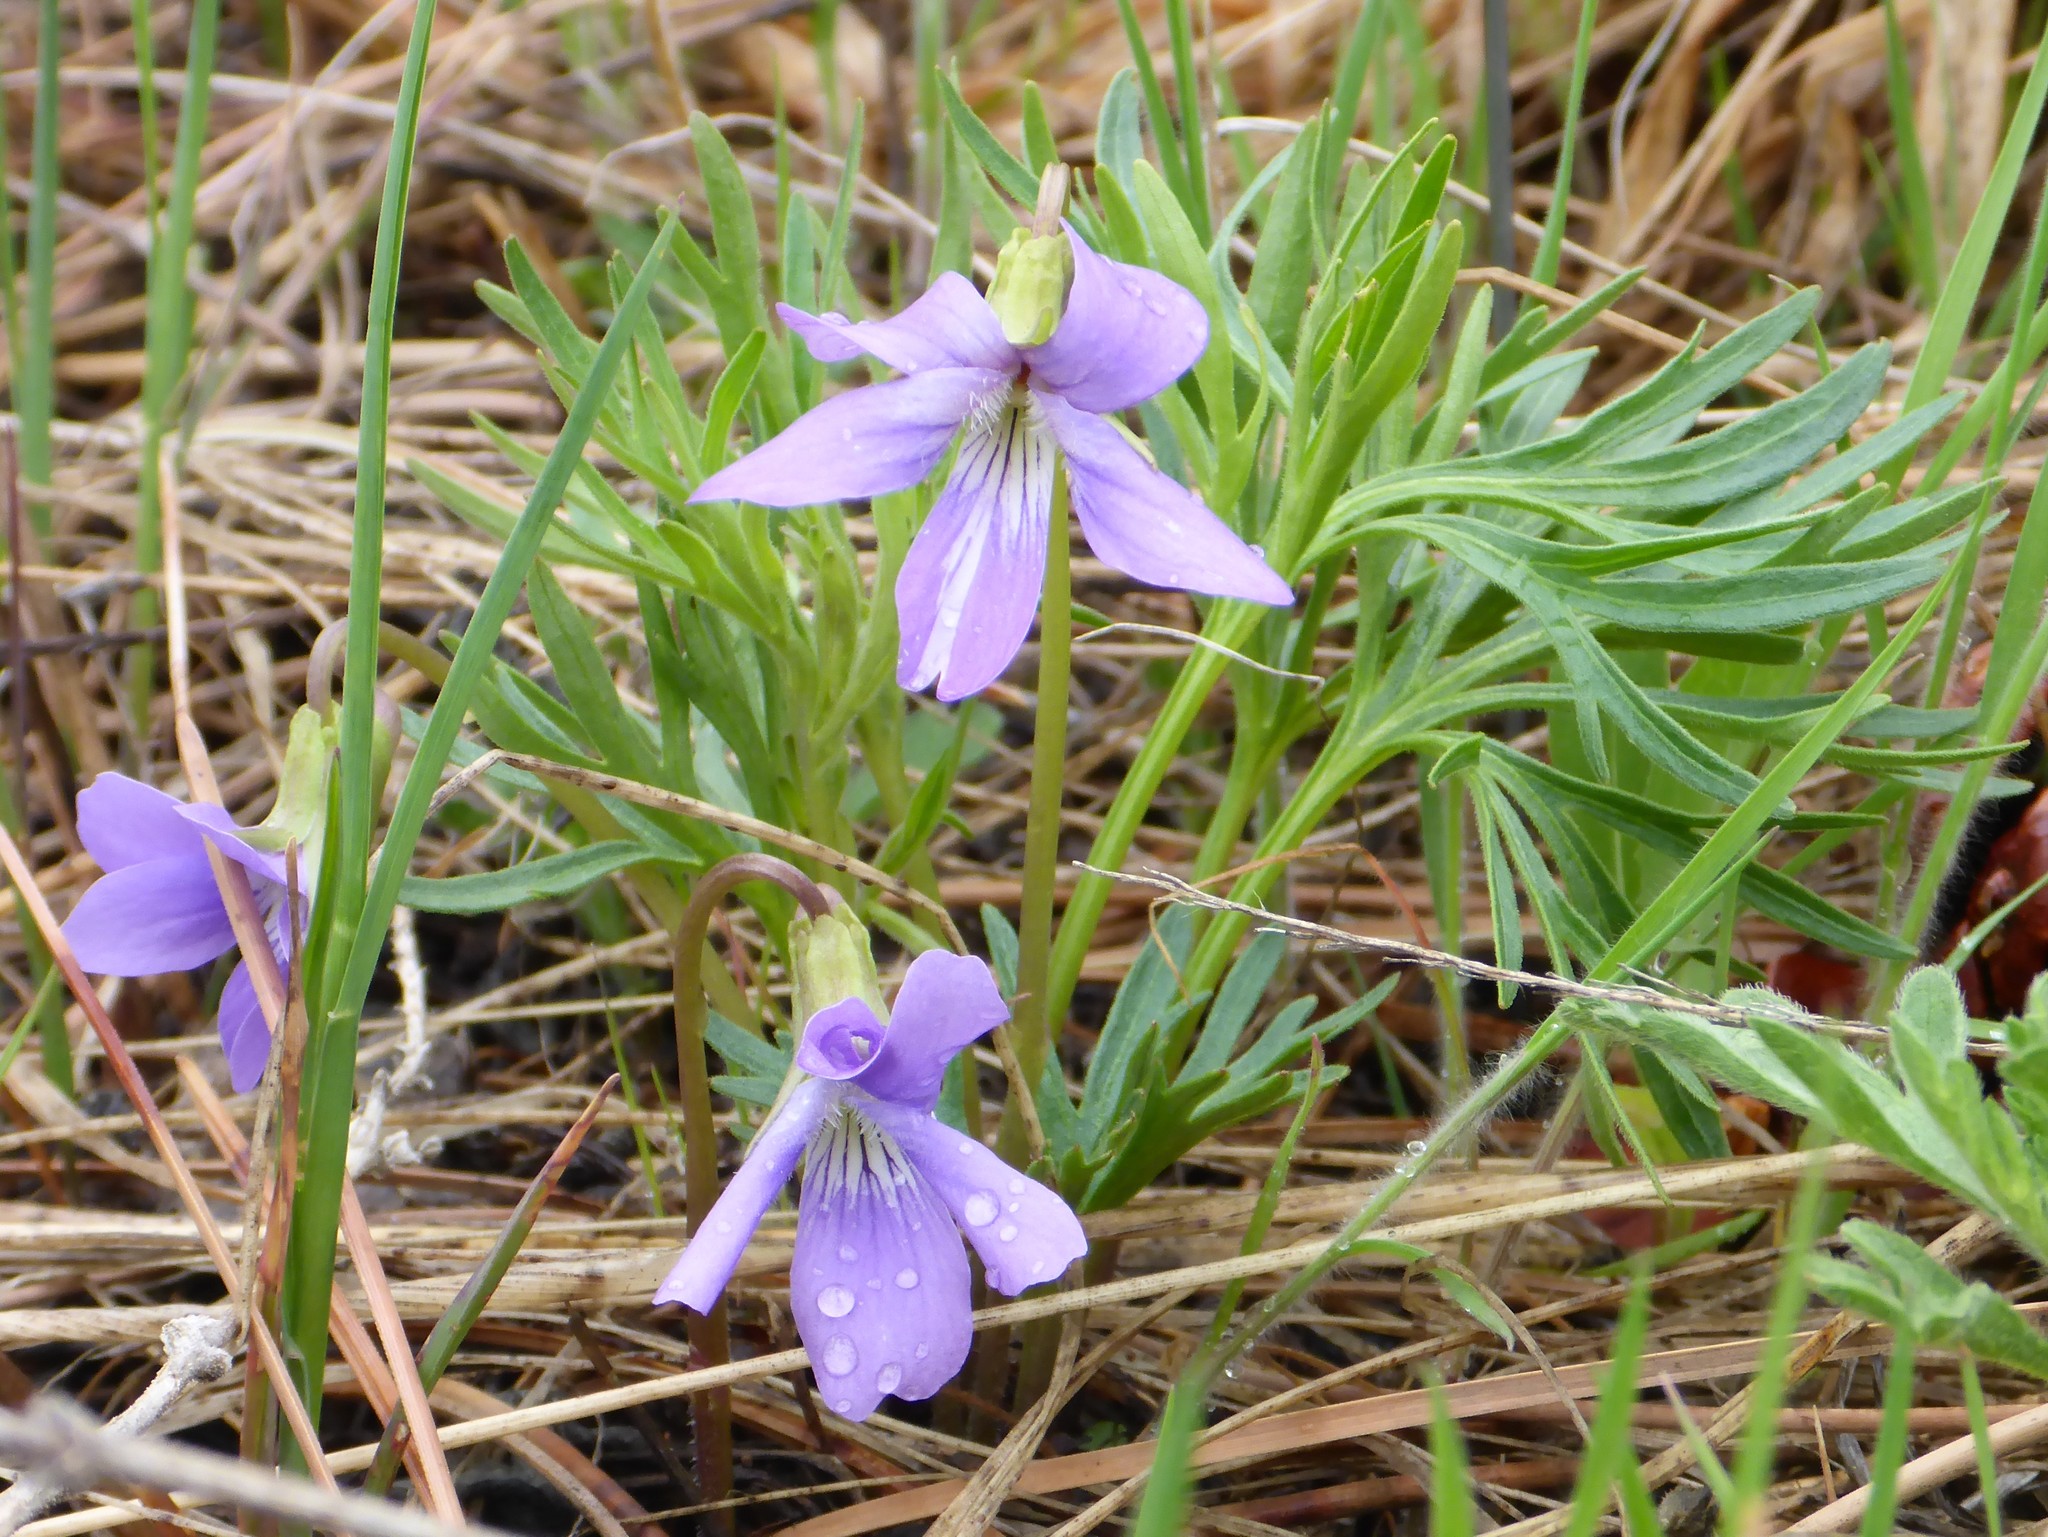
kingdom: Plantae
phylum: Tracheophyta
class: Magnoliopsida
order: Malpighiales
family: Violaceae
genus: Viola
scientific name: Viola pedatifida
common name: Prairie violet
